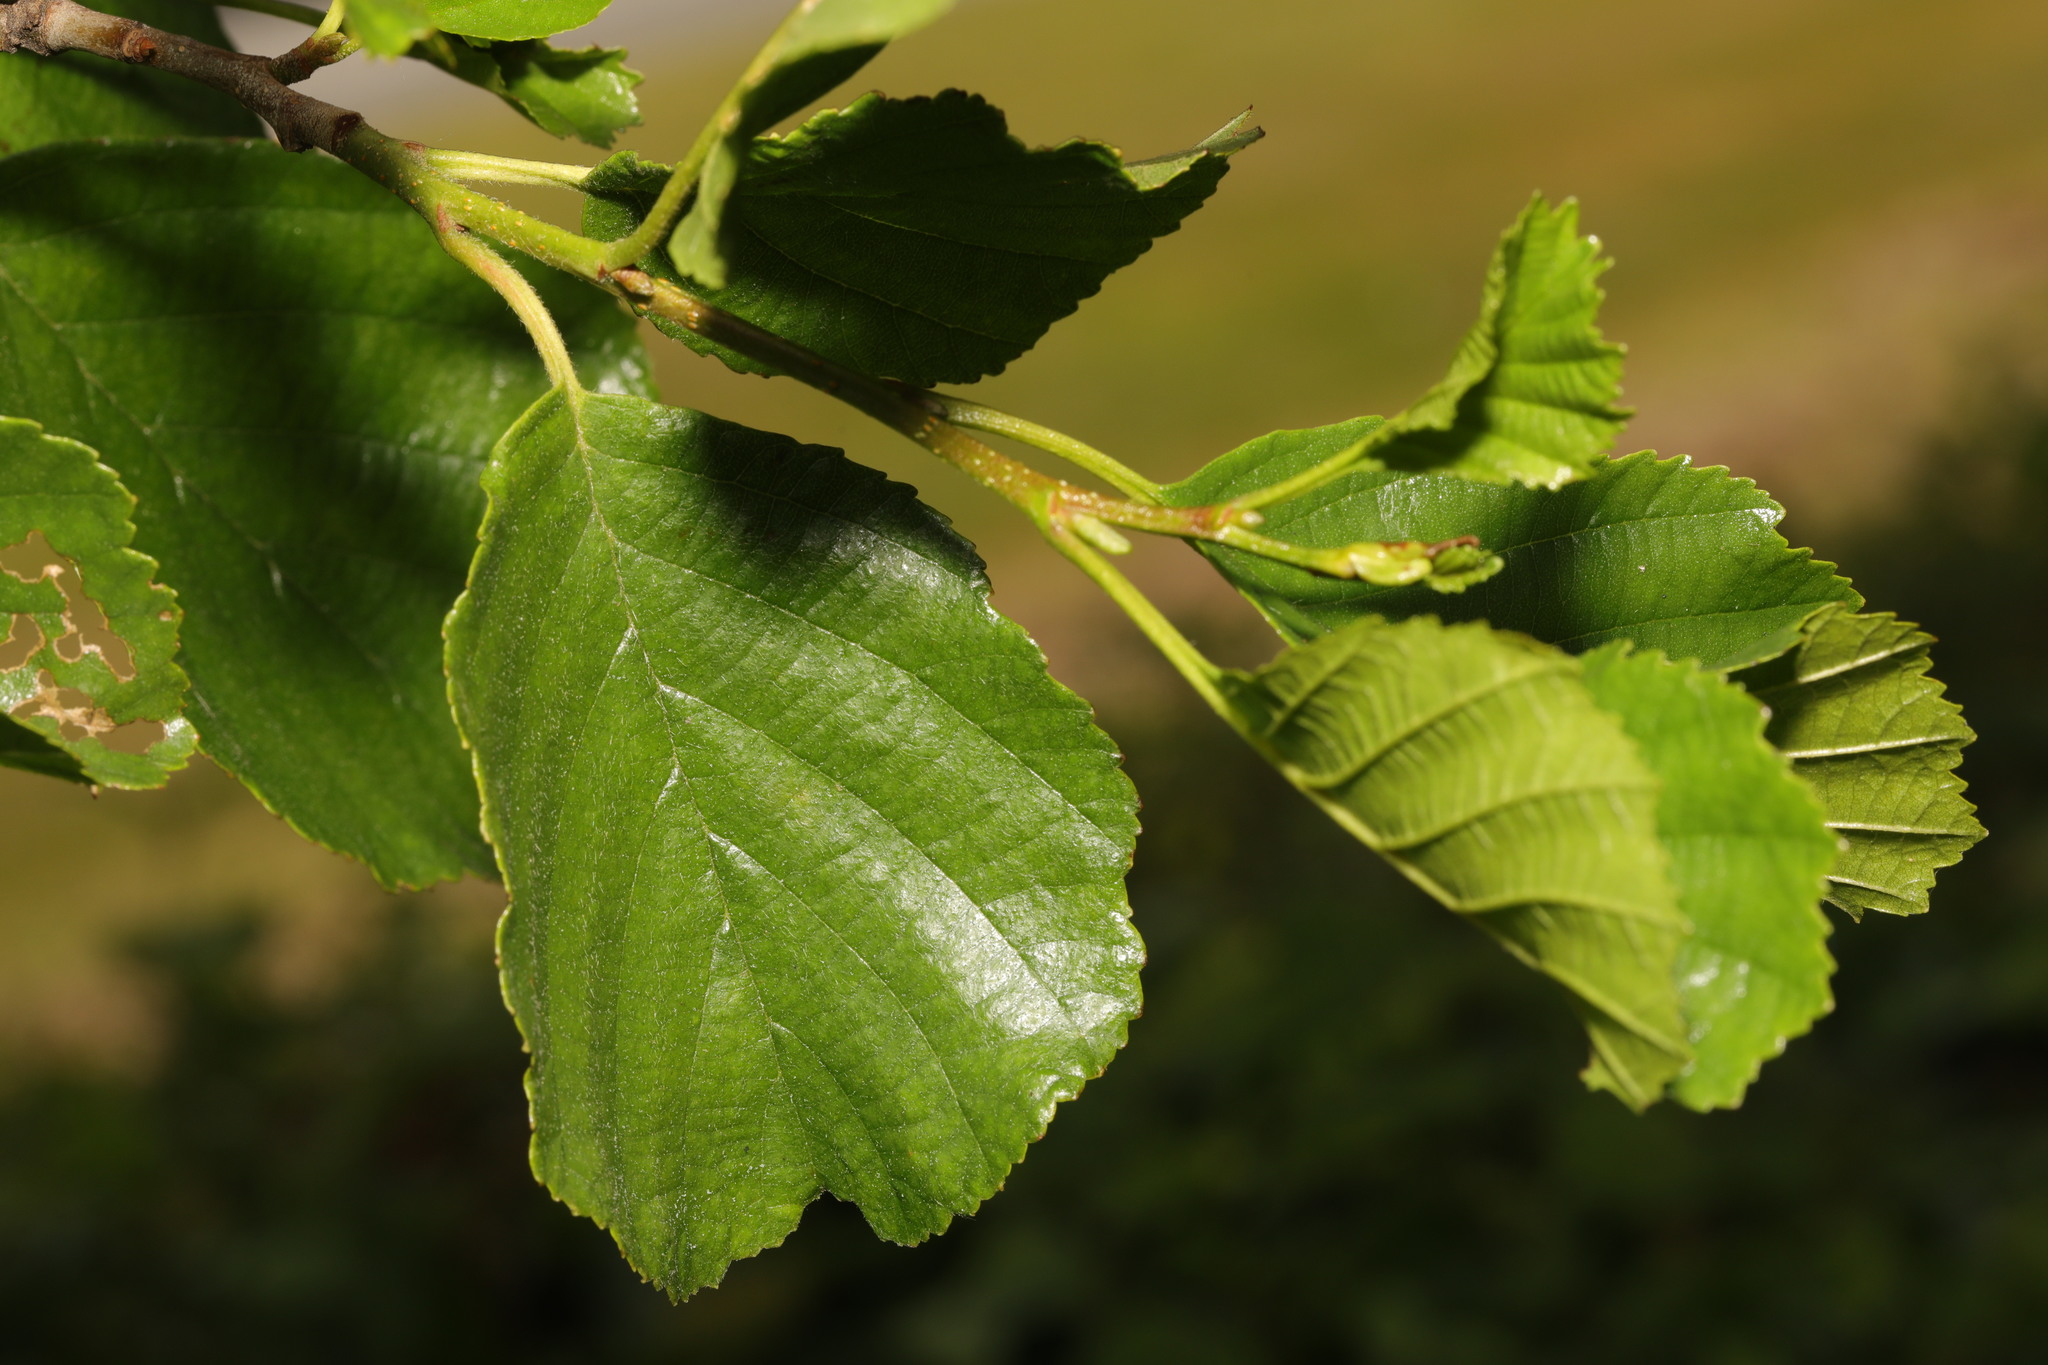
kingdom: Plantae
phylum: Tracheophyta
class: Magnoliopsida
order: Fagales
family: Betulaceae
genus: Alnus
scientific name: Alnus glutinosa
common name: Black alder
